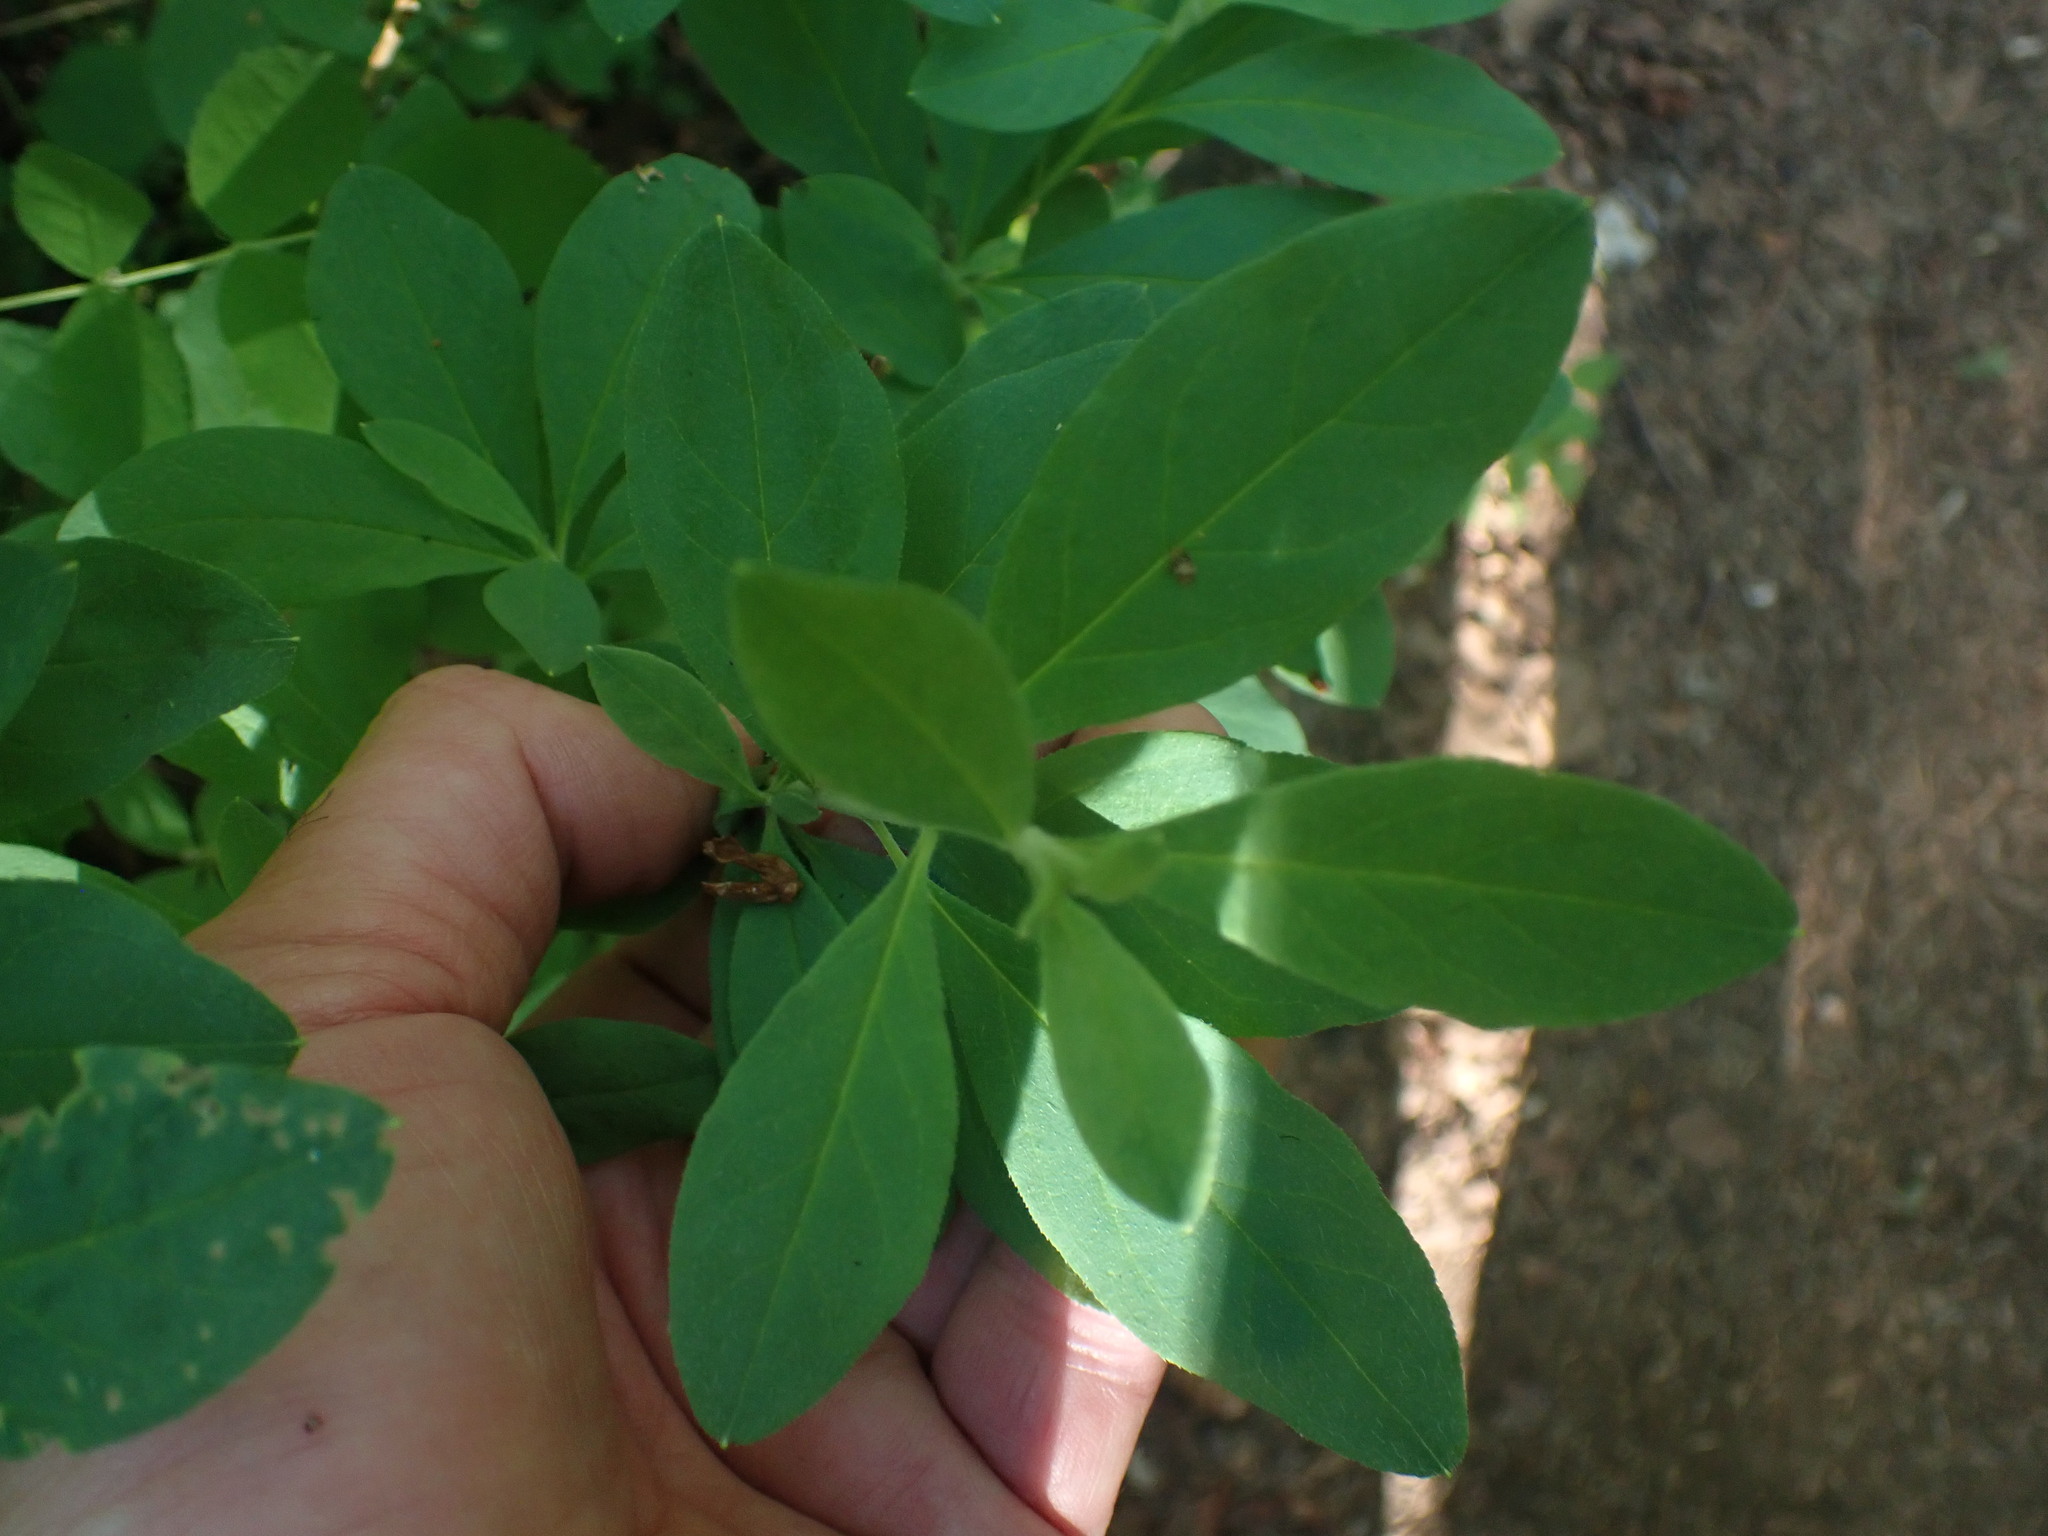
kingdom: Plantae
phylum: Tracheophyta
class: Magnoliopsida
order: Ericales
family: Ericaceae
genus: Rhododendron
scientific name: Rhododendron menziesii
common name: Pacific menziesia
